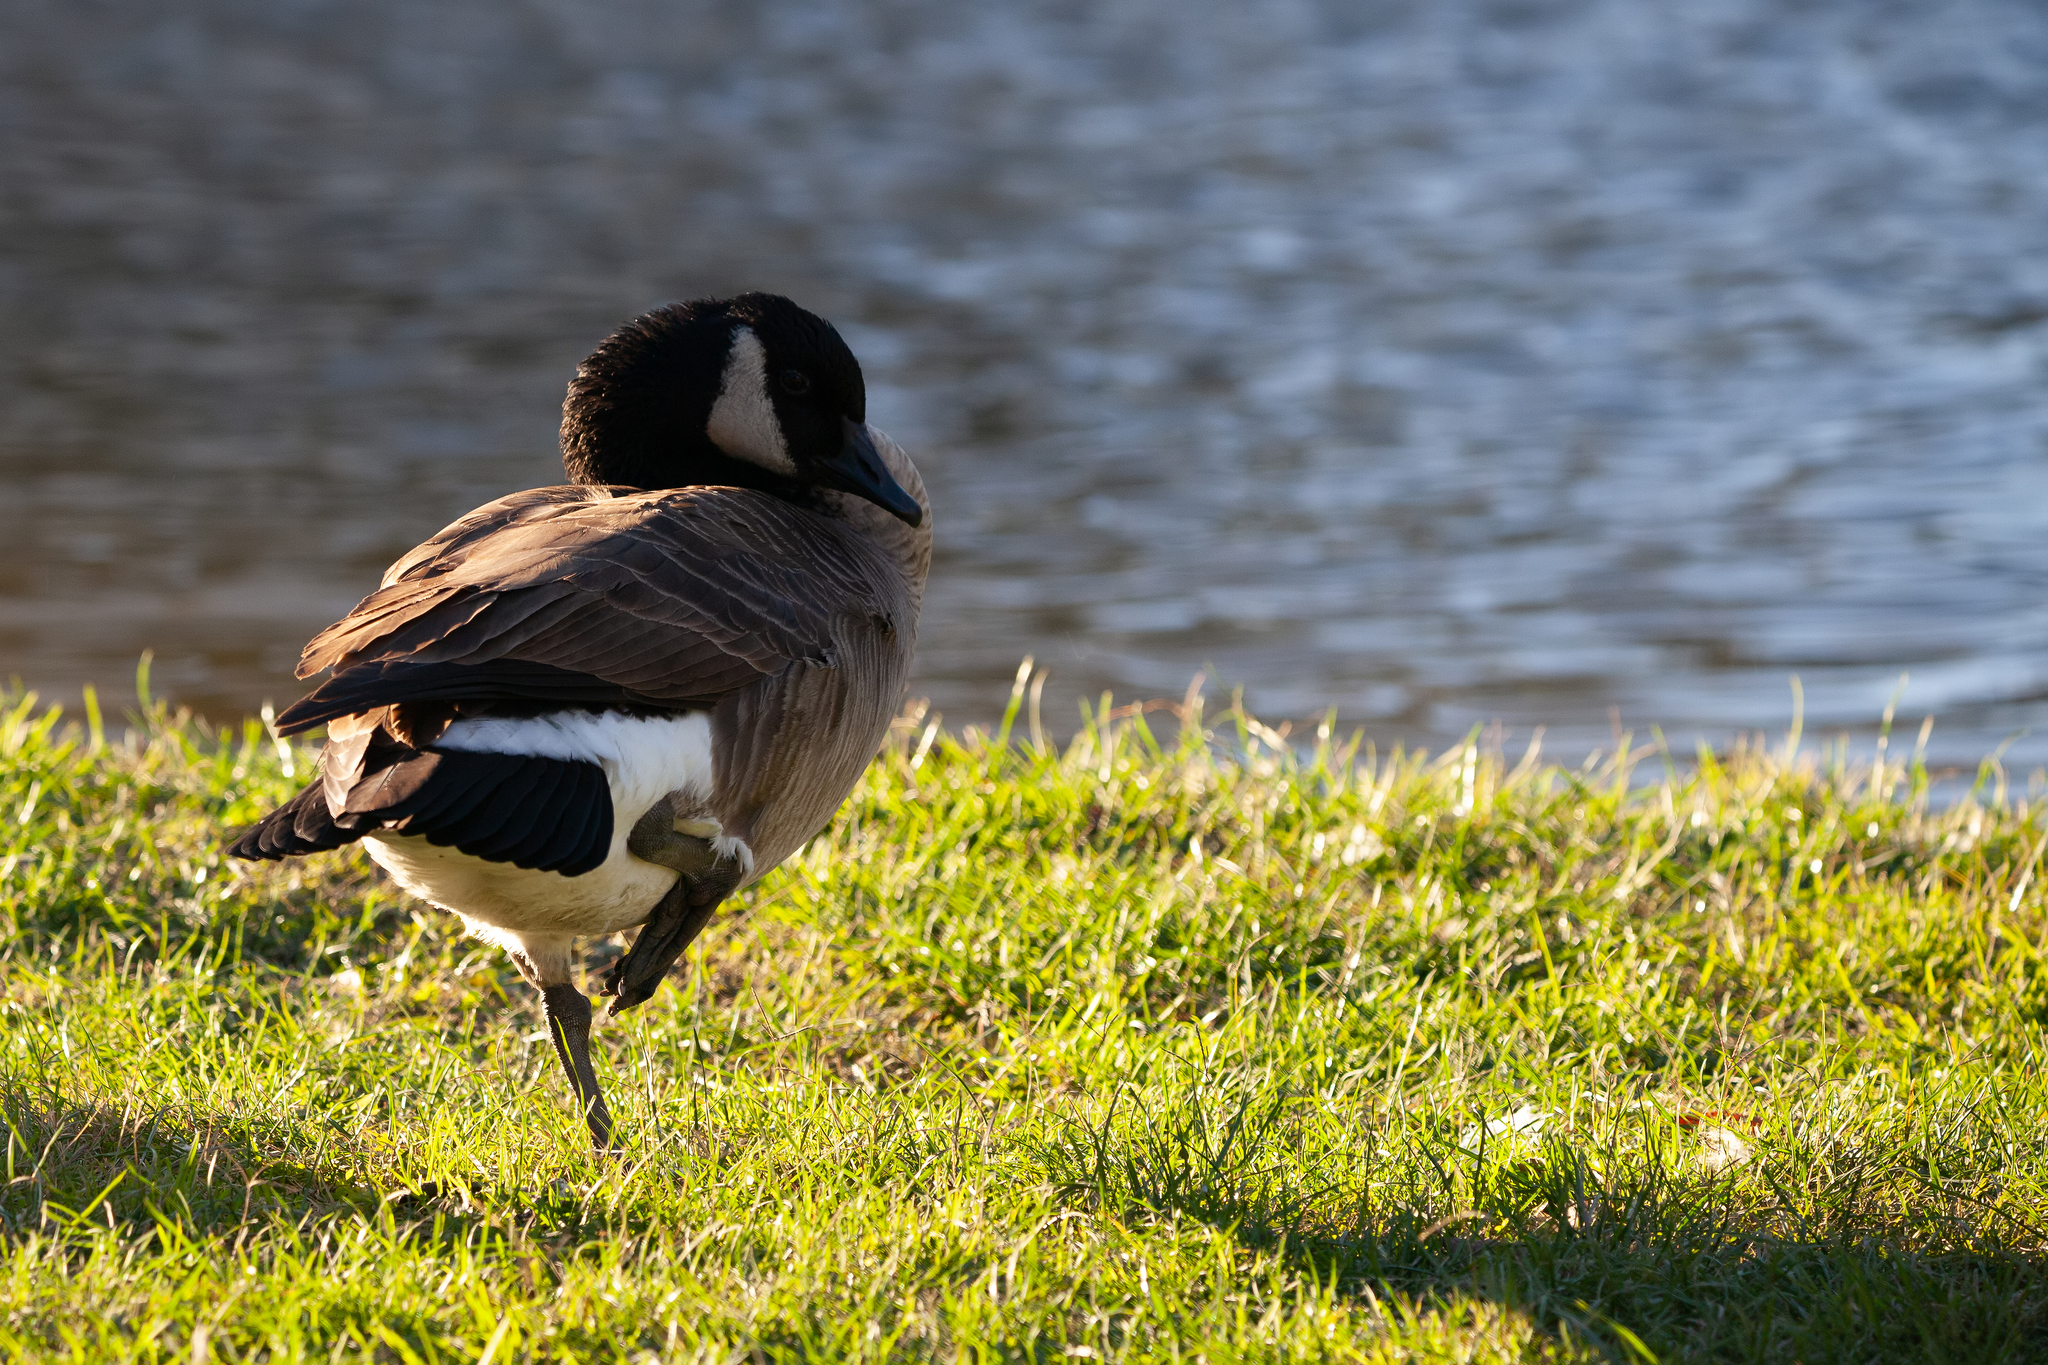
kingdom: Animalia
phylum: Chordata
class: Aves
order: Anseriformes
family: Anatidae
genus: Branta
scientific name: Branta canadensis
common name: Canada goose
